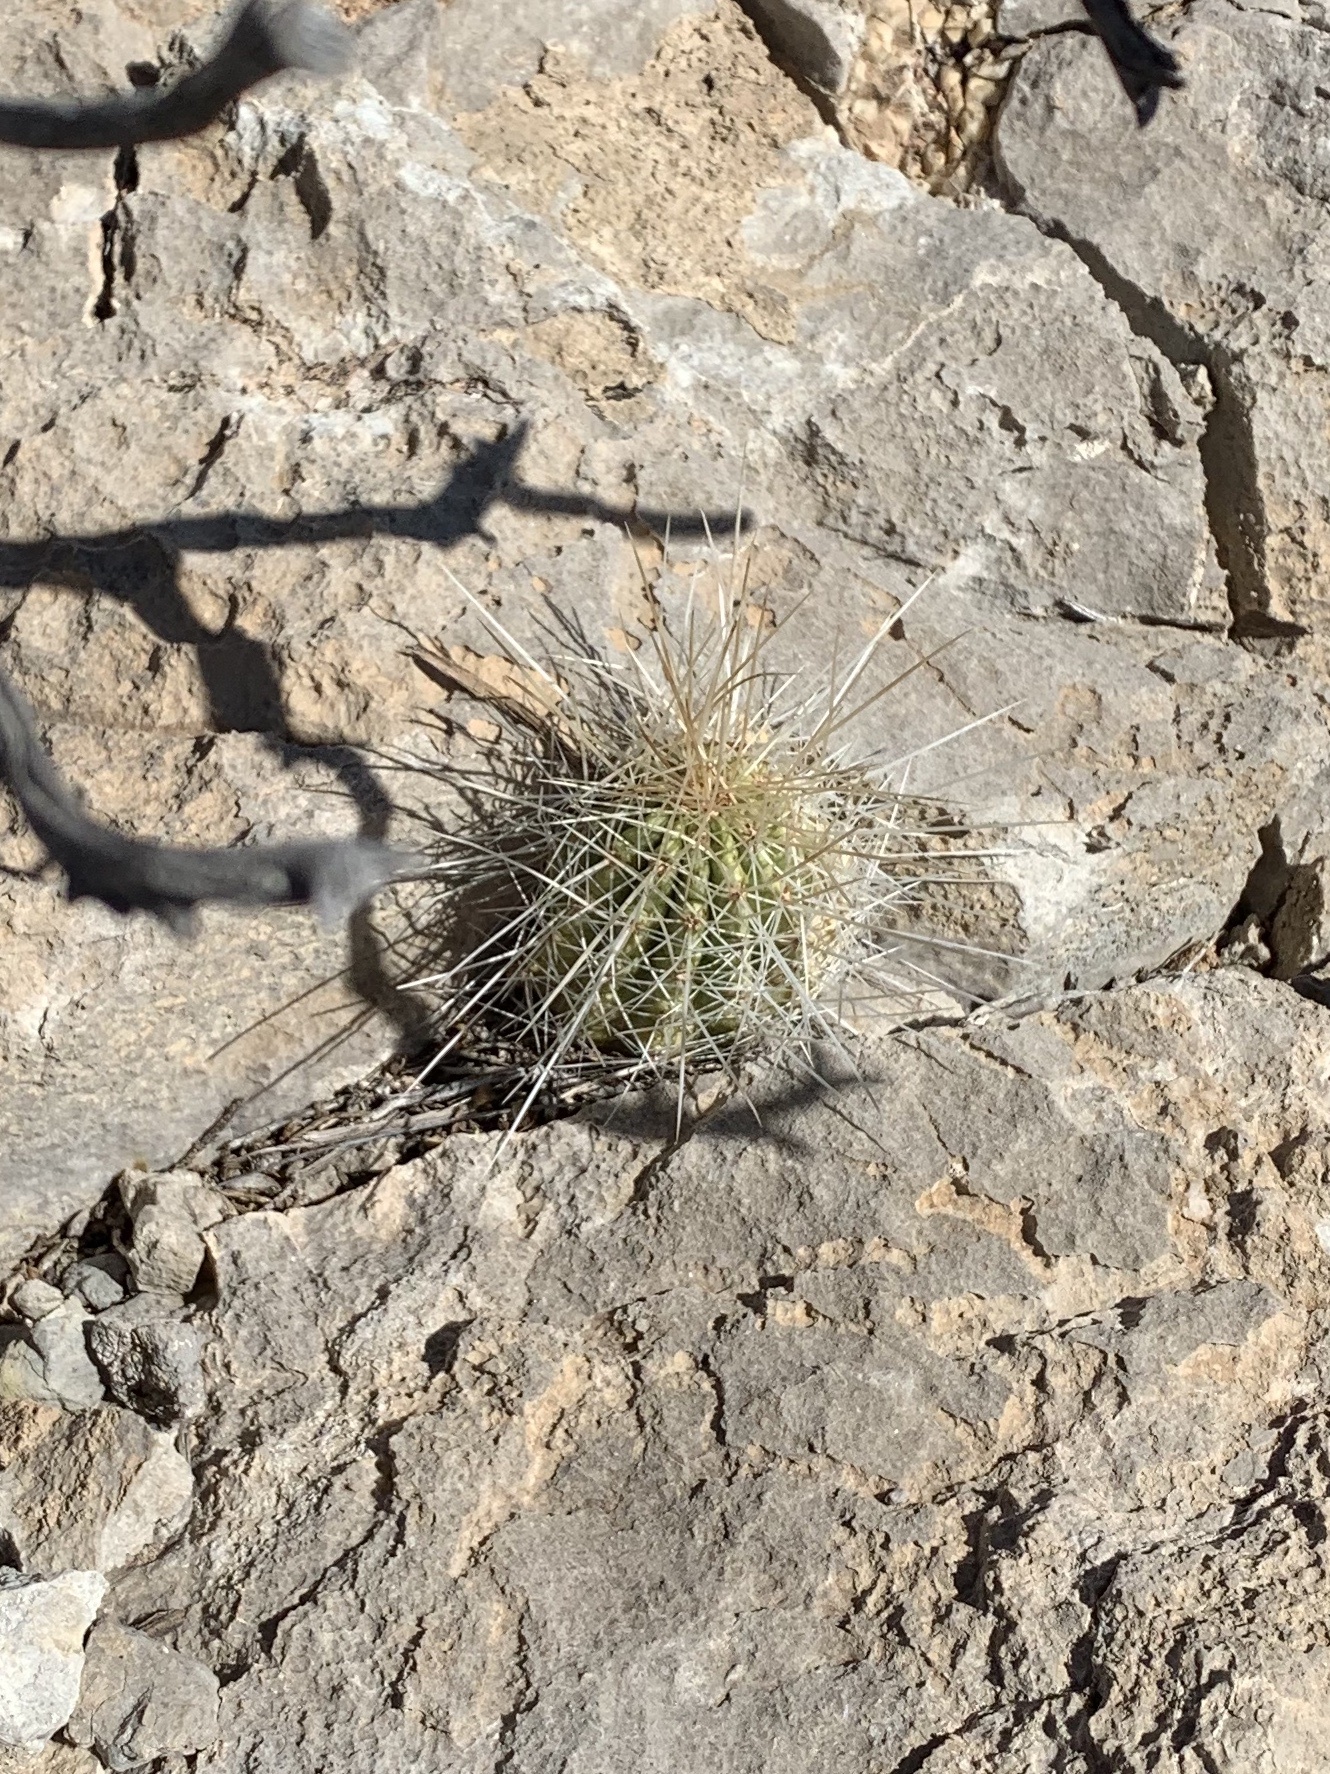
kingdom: Plantae
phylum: Tracheophyta
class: Magnoliopsida
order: Caryophyllales
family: Cactaceae
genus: Echinocereus
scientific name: Echinocereus stramineus
